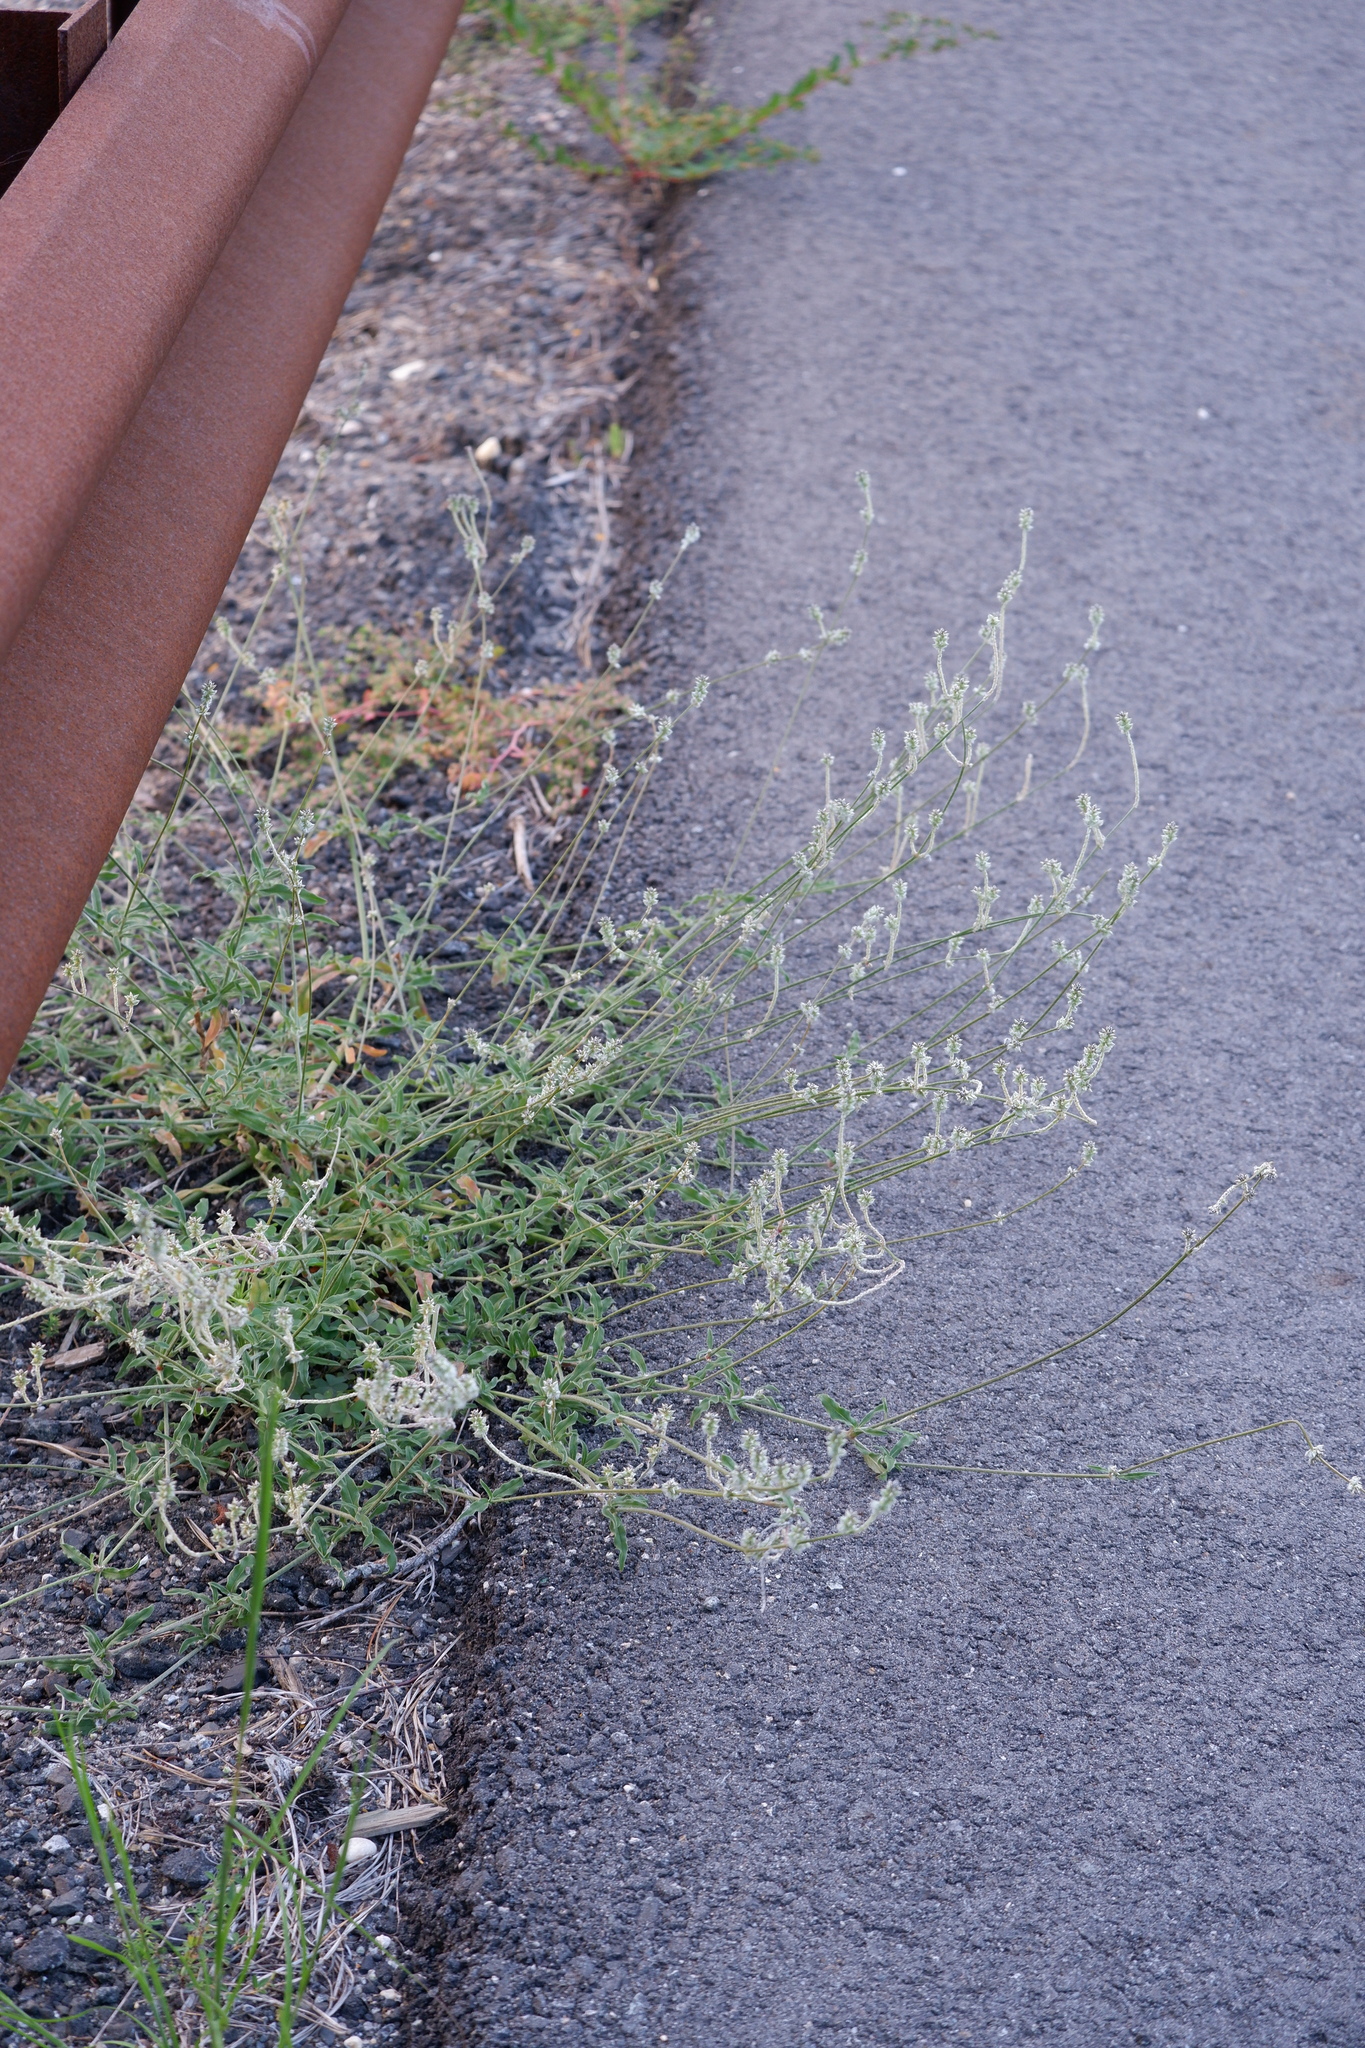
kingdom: Plantae
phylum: Tracheophyta
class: Magnoliopsida
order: Caryophyllales
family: Amaranthaceae
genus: Froelichia
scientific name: Froelichia gracilis
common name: Slender cottonweed
